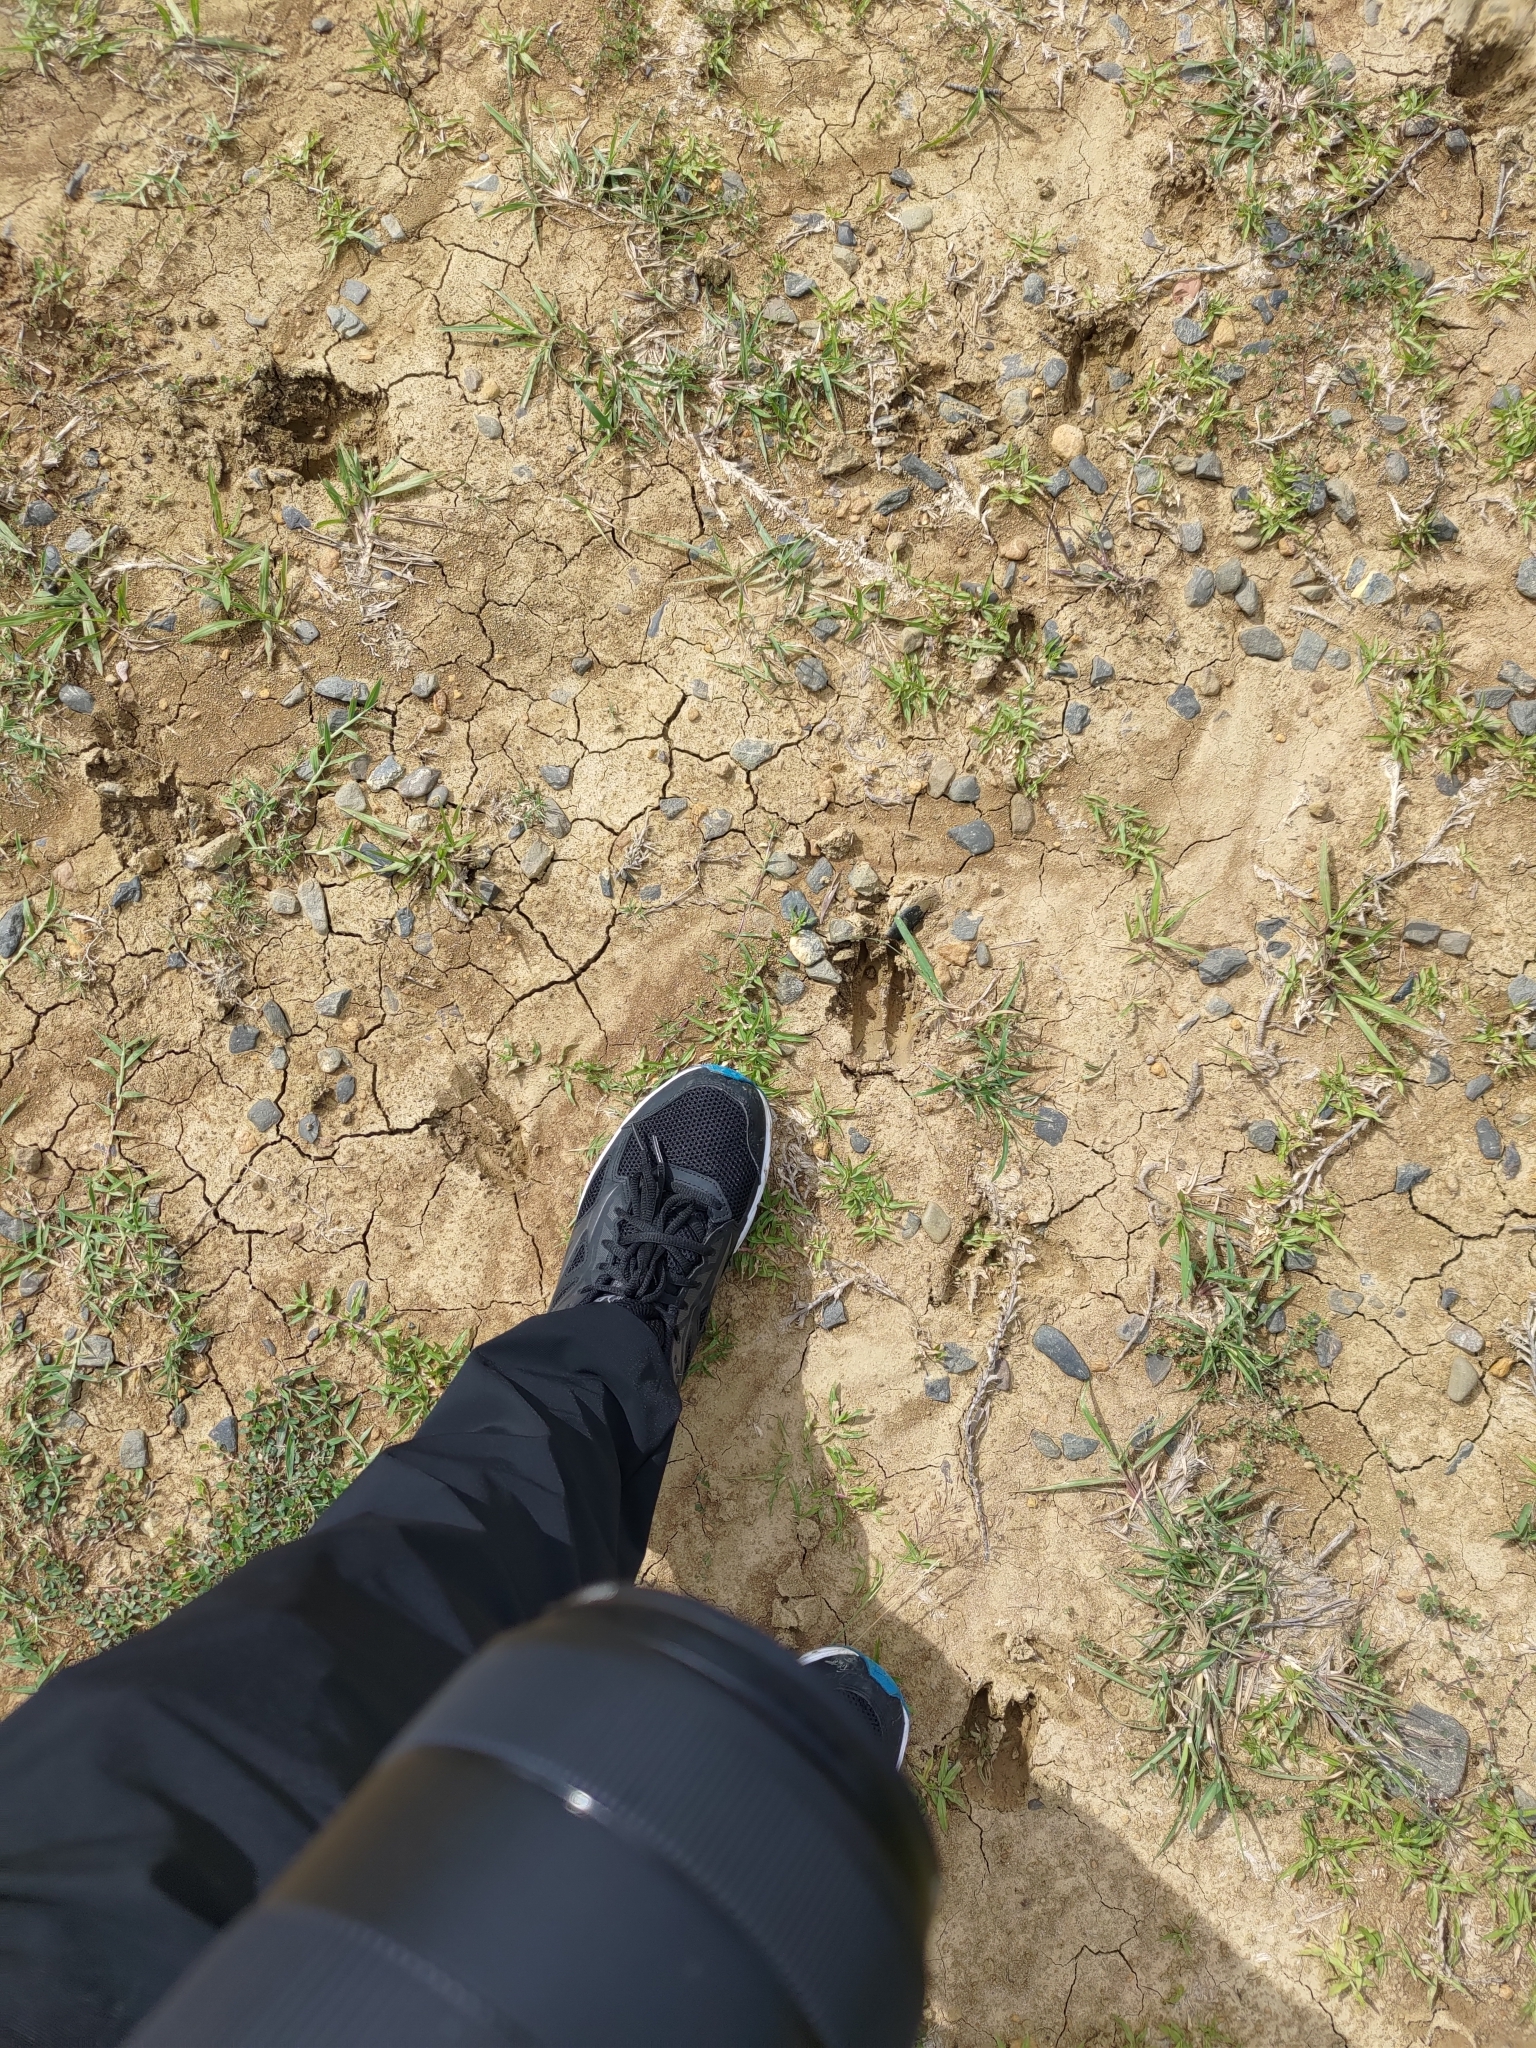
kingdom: Animalia
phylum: Chordata
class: Mammalia
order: Artiodactyla
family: Cervidae
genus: Cervus
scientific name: Cervus nippon
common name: Sika deer
